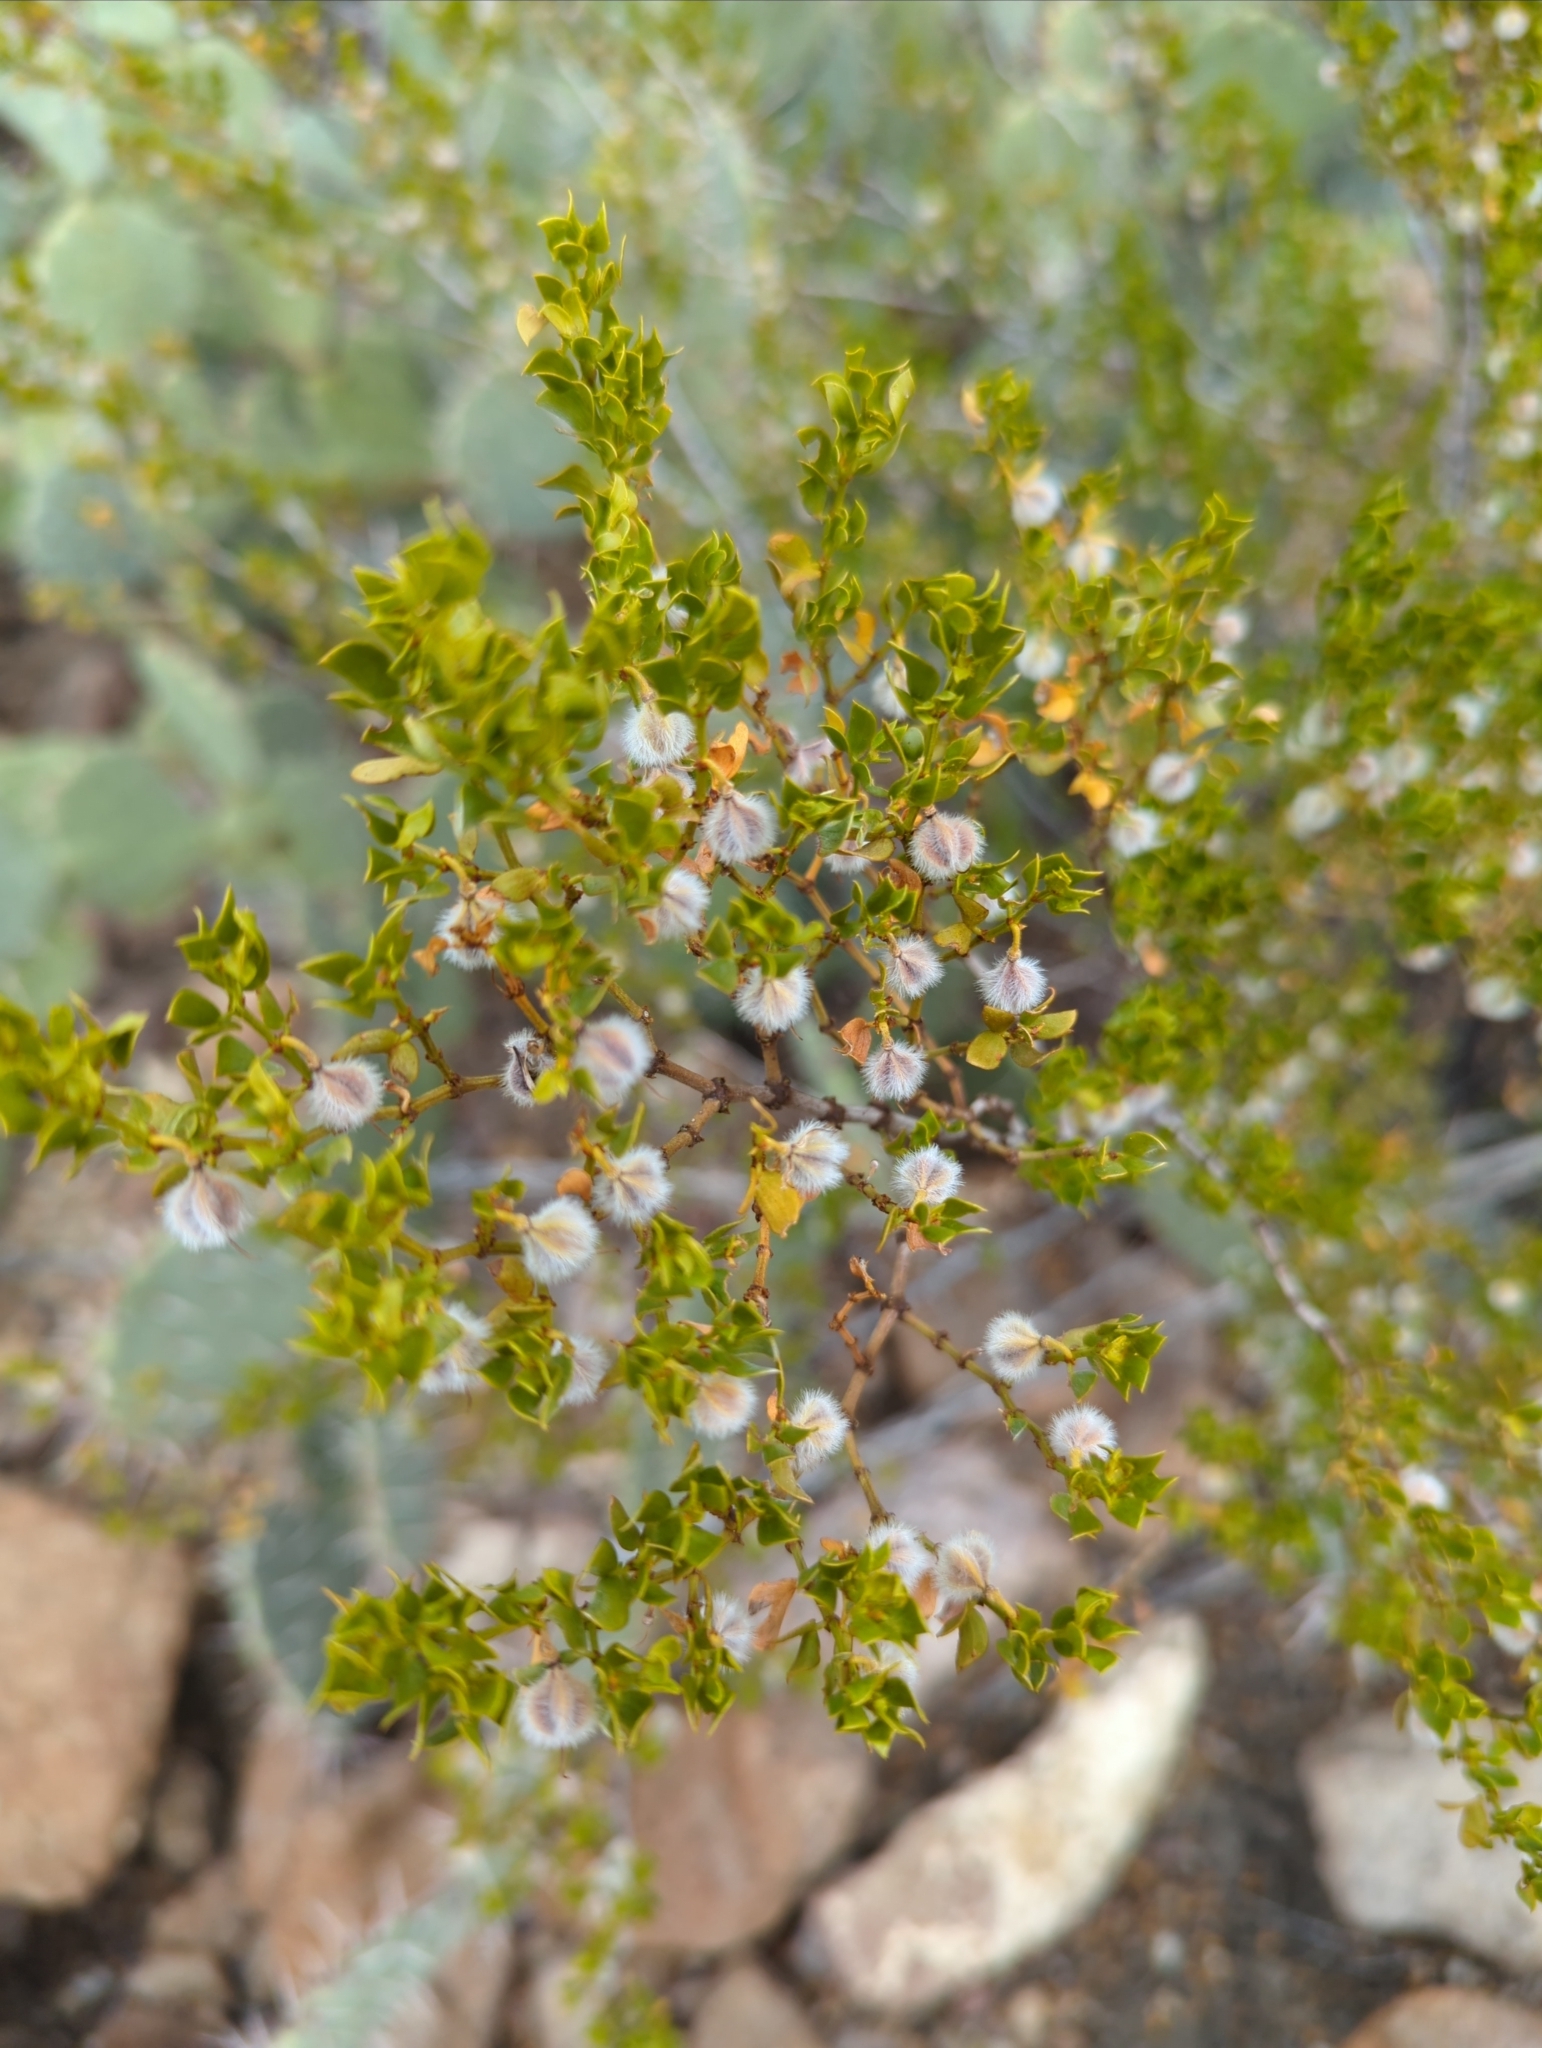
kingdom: Plantae
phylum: Tracheophyta
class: Magnoliopsida
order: Zygophyllales
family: Zygophyllaceae
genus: Larrea
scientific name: Larrea tridentata
